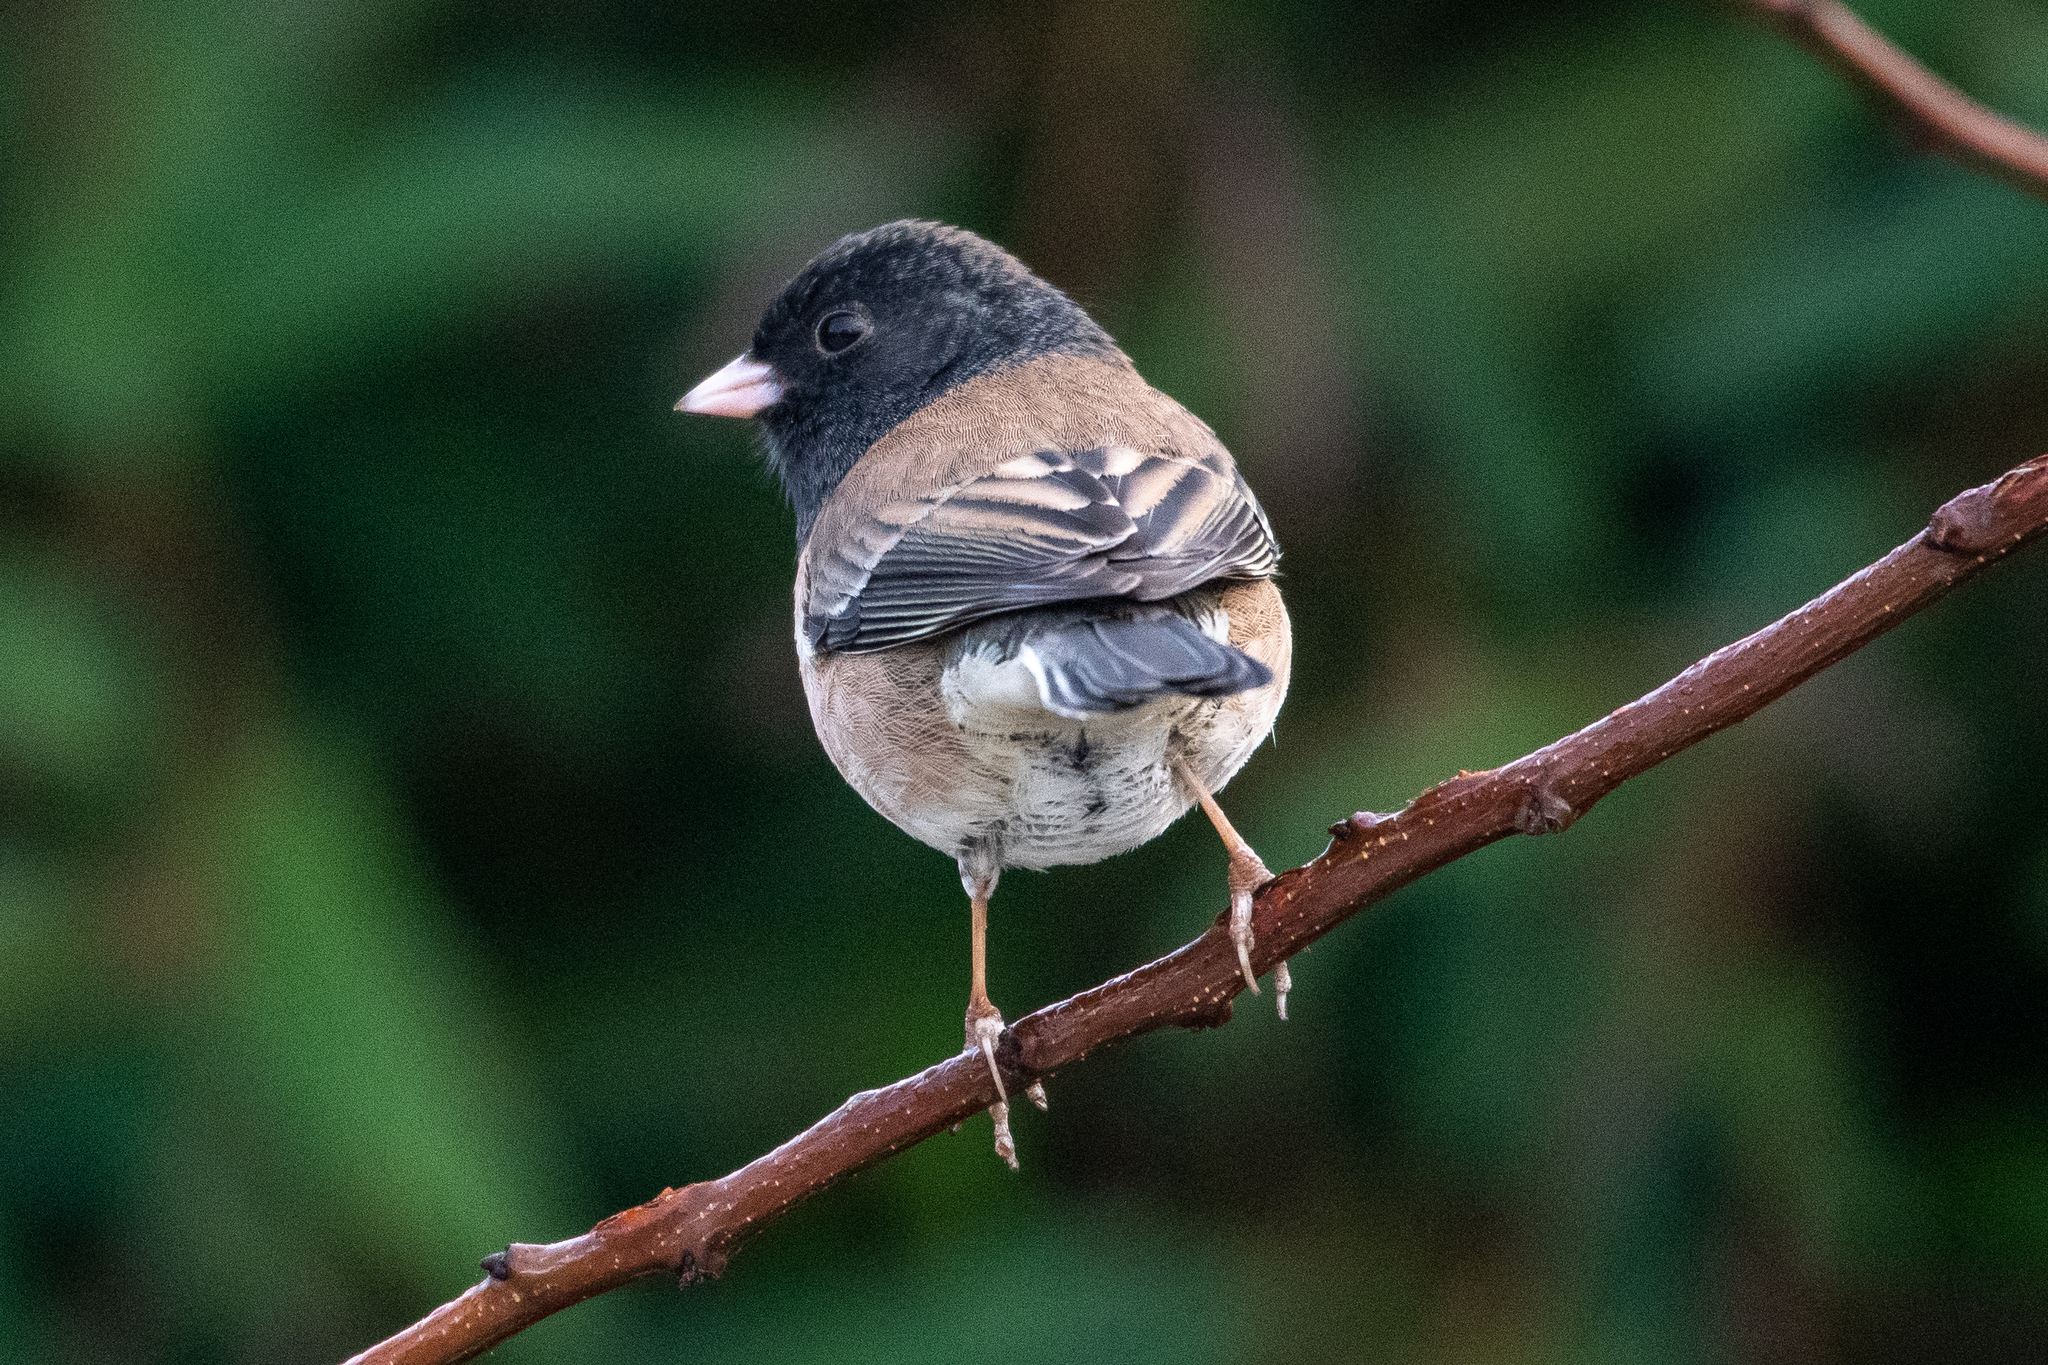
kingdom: Animalia
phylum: Chordata
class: Aves
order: Passeriformes
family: Passerellidae
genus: Junco
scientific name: Junco hyemalis
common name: Dark-eyed junco
